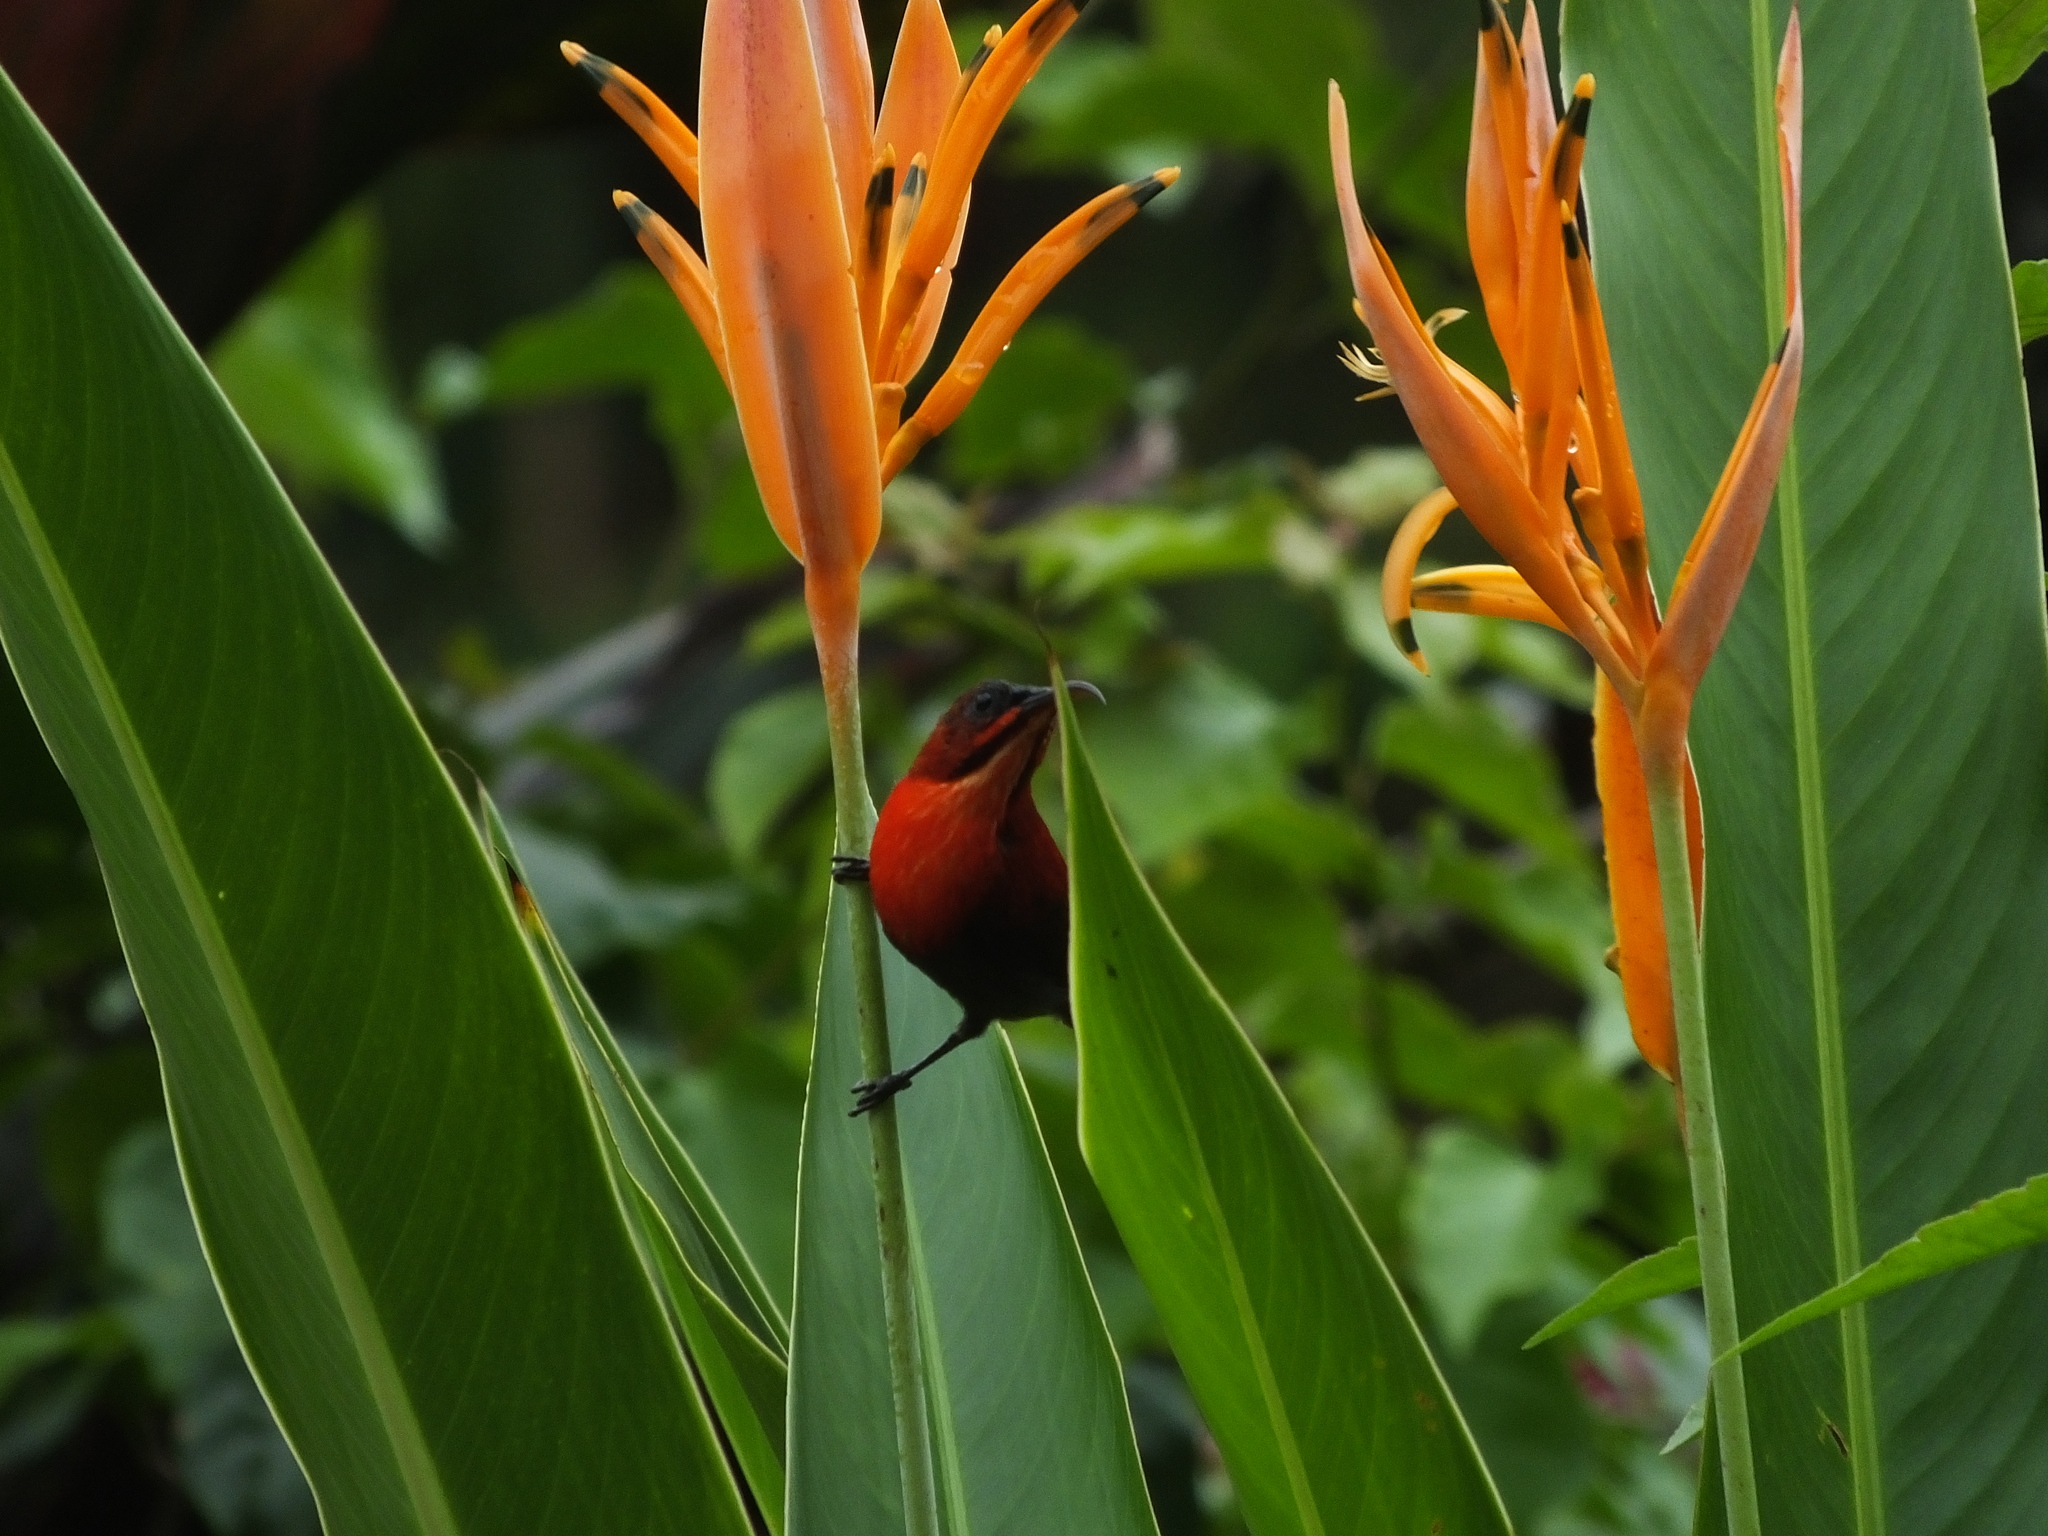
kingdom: Animalia
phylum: Chordata
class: Aves
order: Passeriformes
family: Nectariniidae
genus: Aethopyga
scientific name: Aethopyga siparaja
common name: Crimson sunbird
